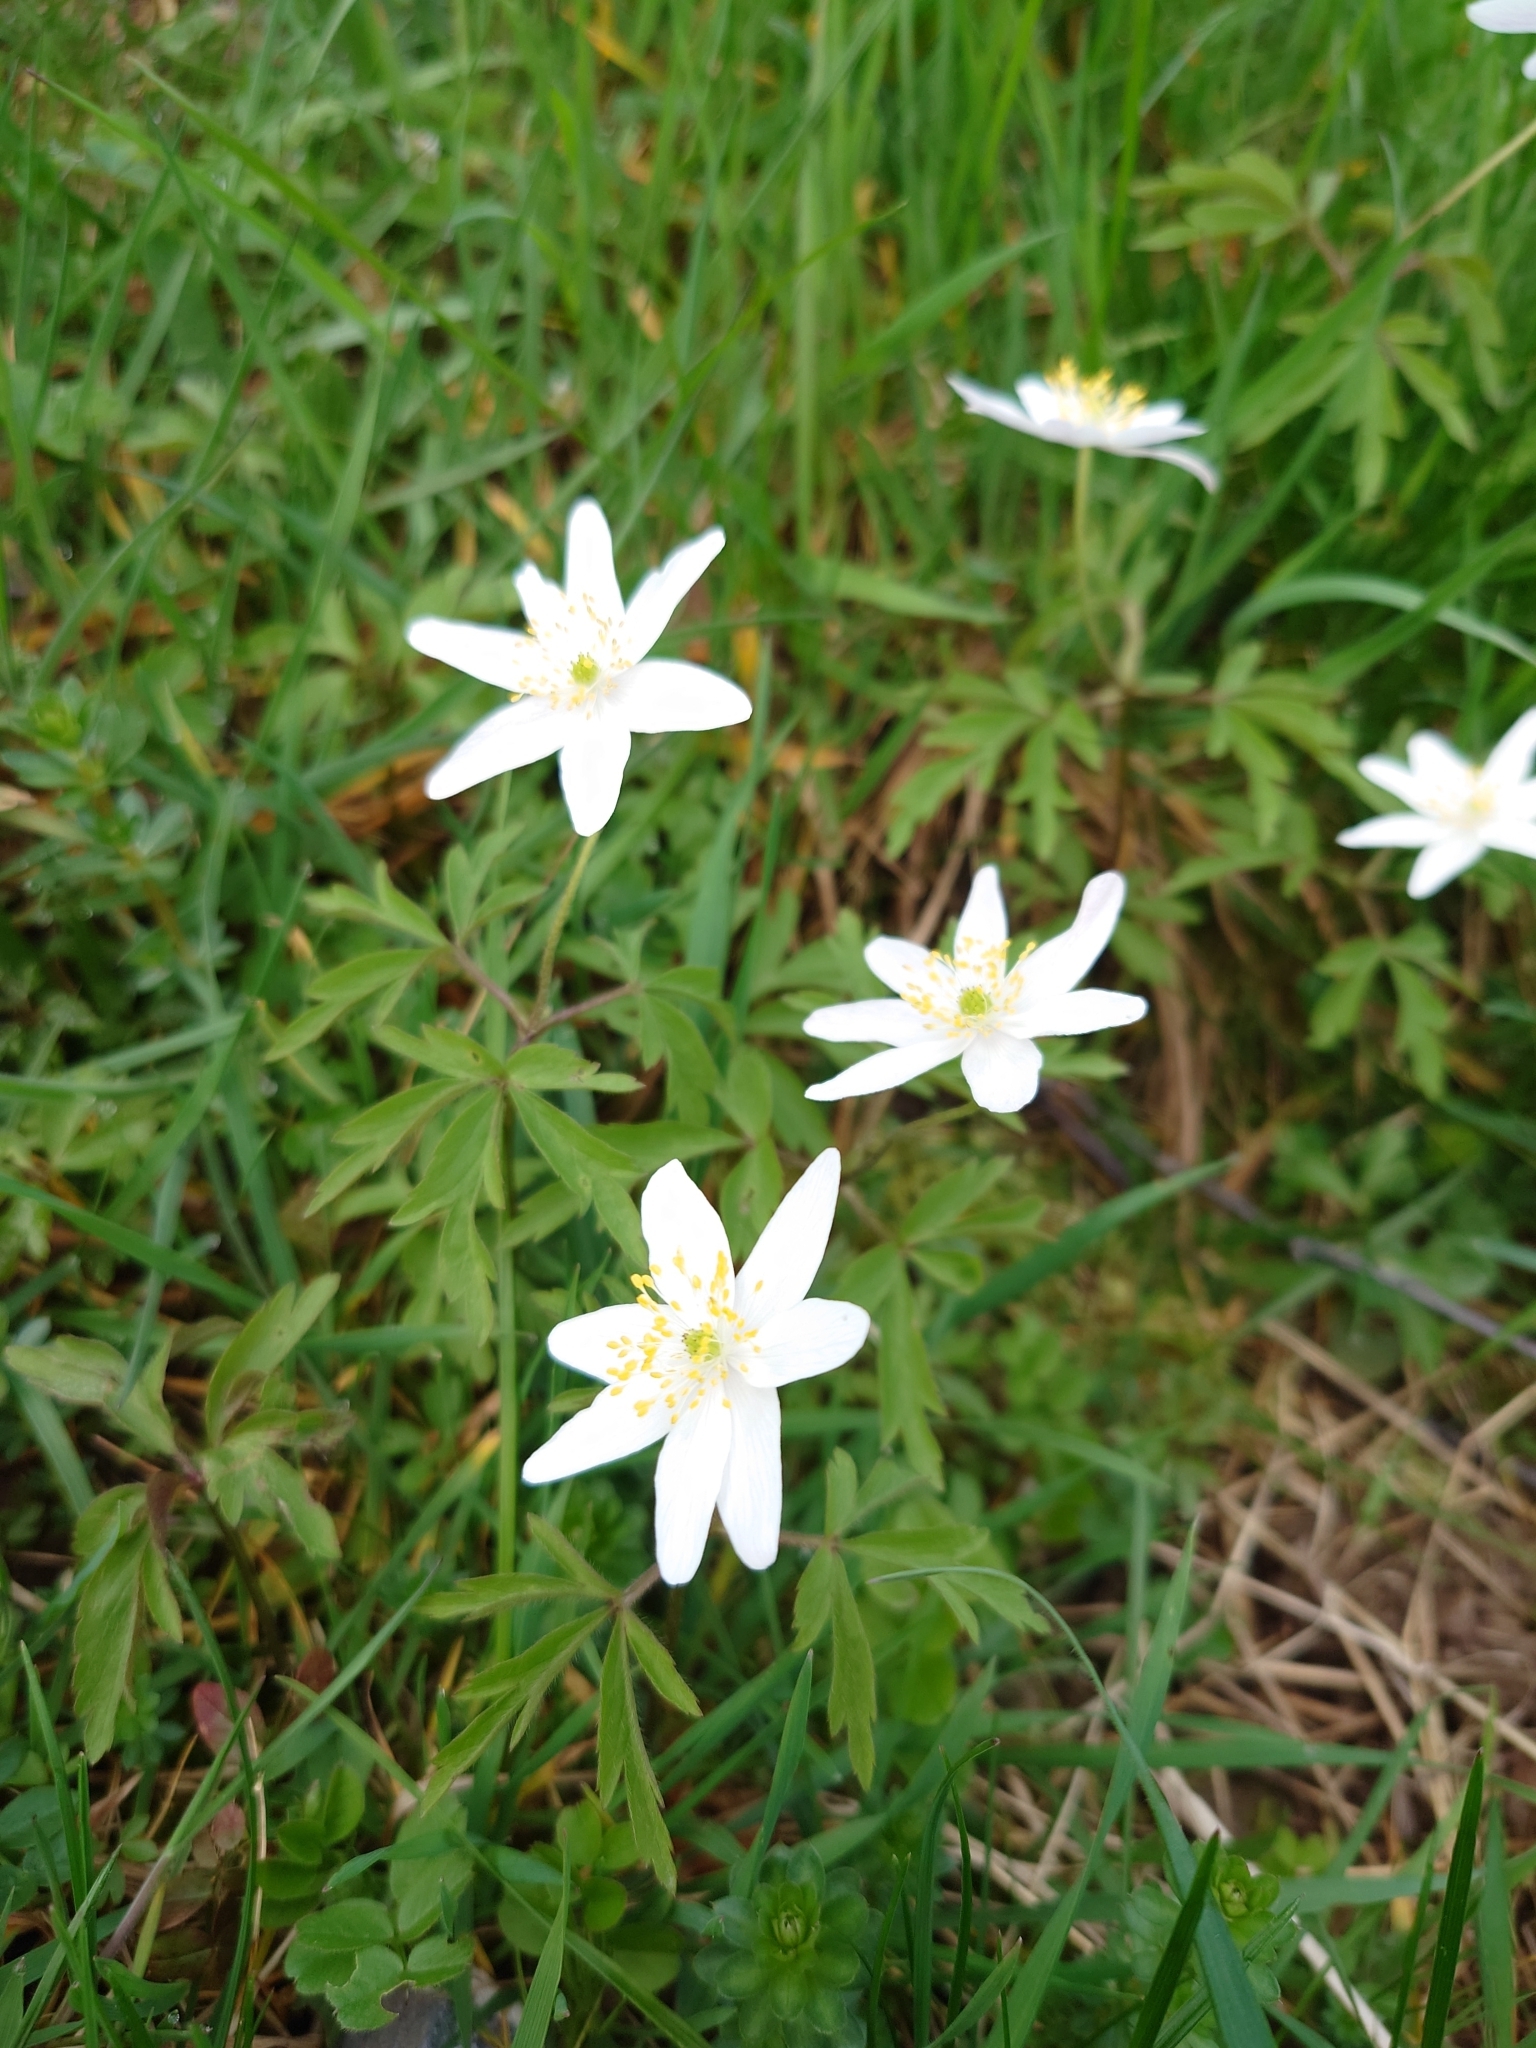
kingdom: Plantae
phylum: Tracheophyta
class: Magnoliopsida
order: Ranunculales
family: Ranunculaceae
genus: Anemone
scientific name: Anemone nemorosa
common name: Wood anemone
